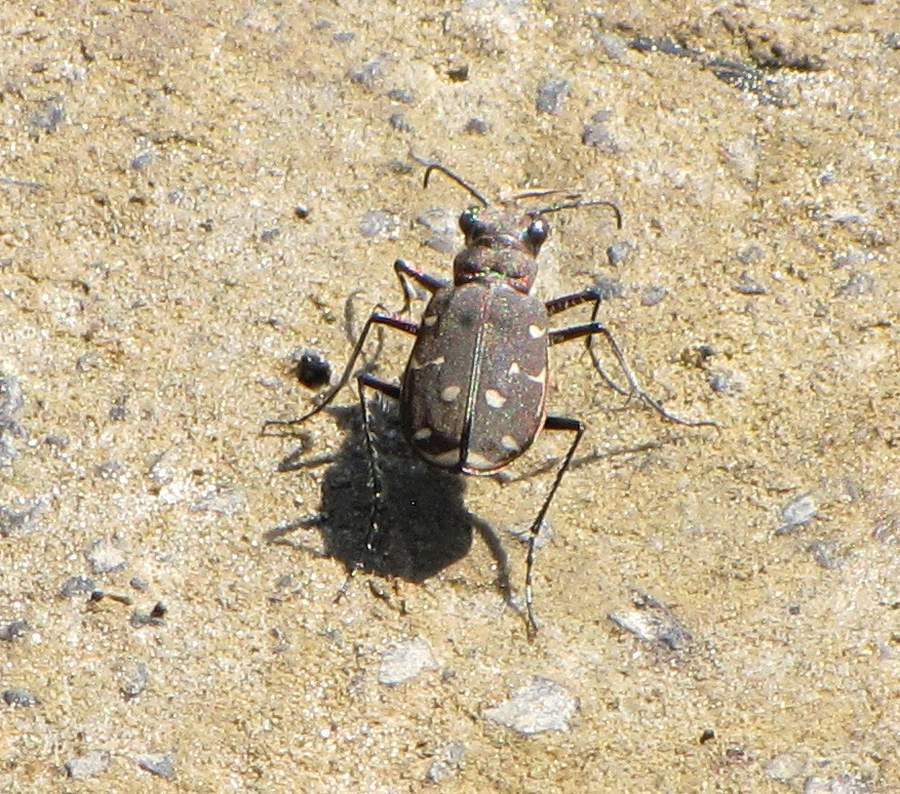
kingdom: Animalia
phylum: Arthropoda
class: Insecta
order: Coleoptera
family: Carabidae
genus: Cicindela
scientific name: Cicindela duodecimguttata
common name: Twelve-spotted tiger beetle
